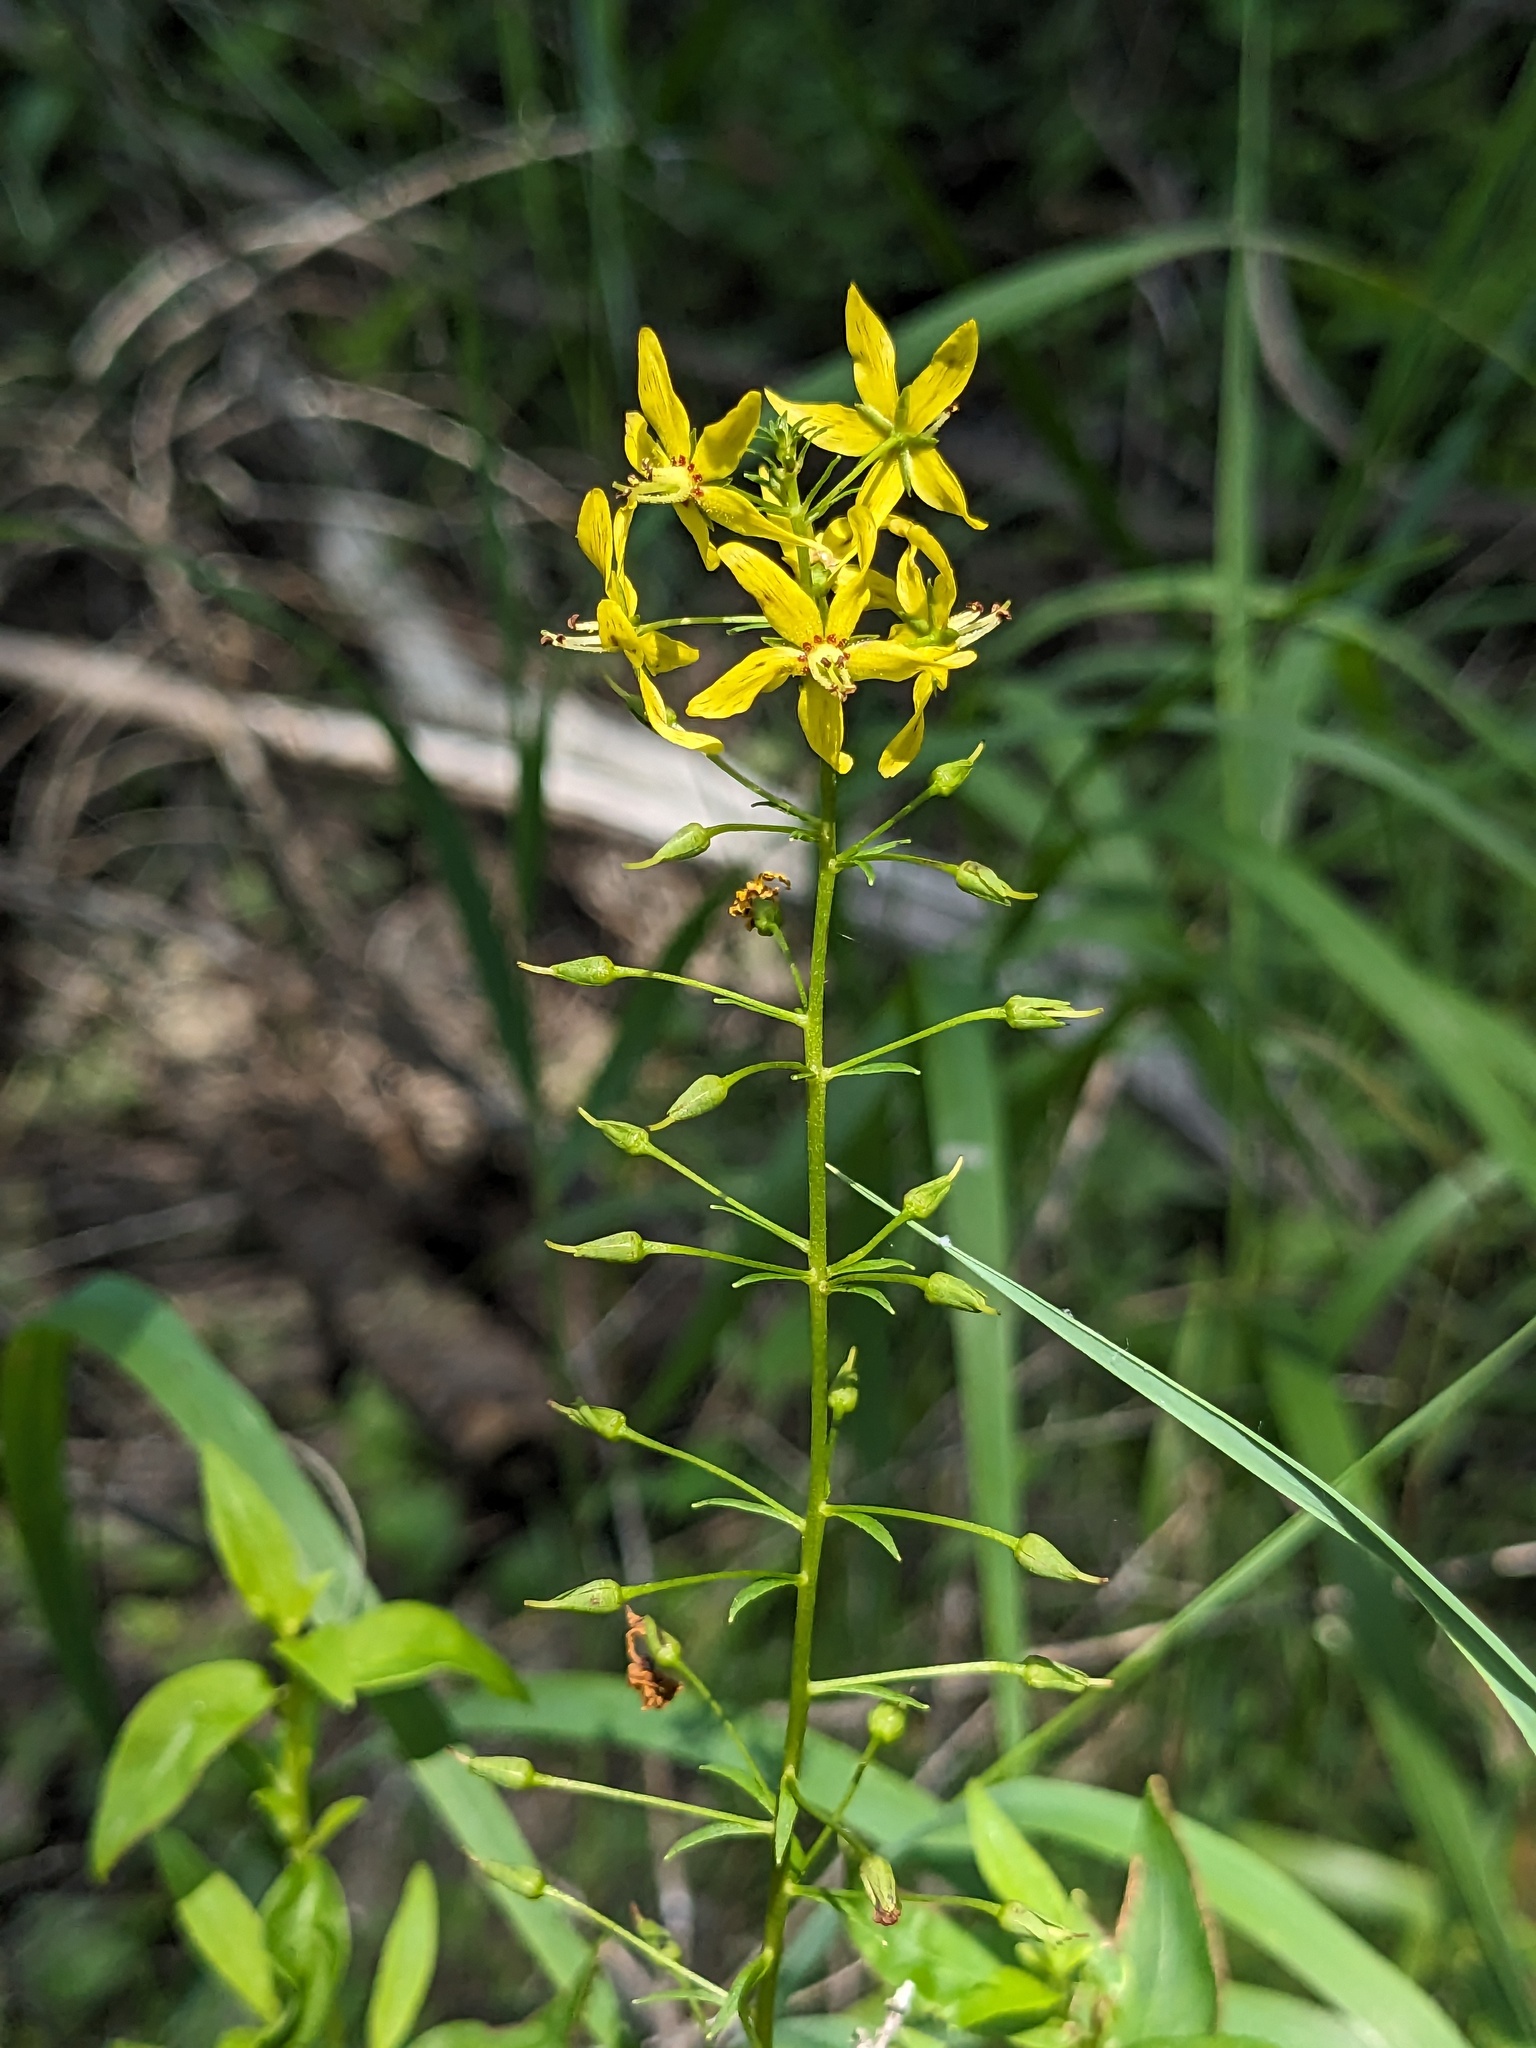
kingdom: Plantae
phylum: Tracheophyta
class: Magnoliopsida
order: Ericales
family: Primulaceae
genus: Lysimachia
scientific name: Lysimachia terrestris
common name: Lake loosestrife
